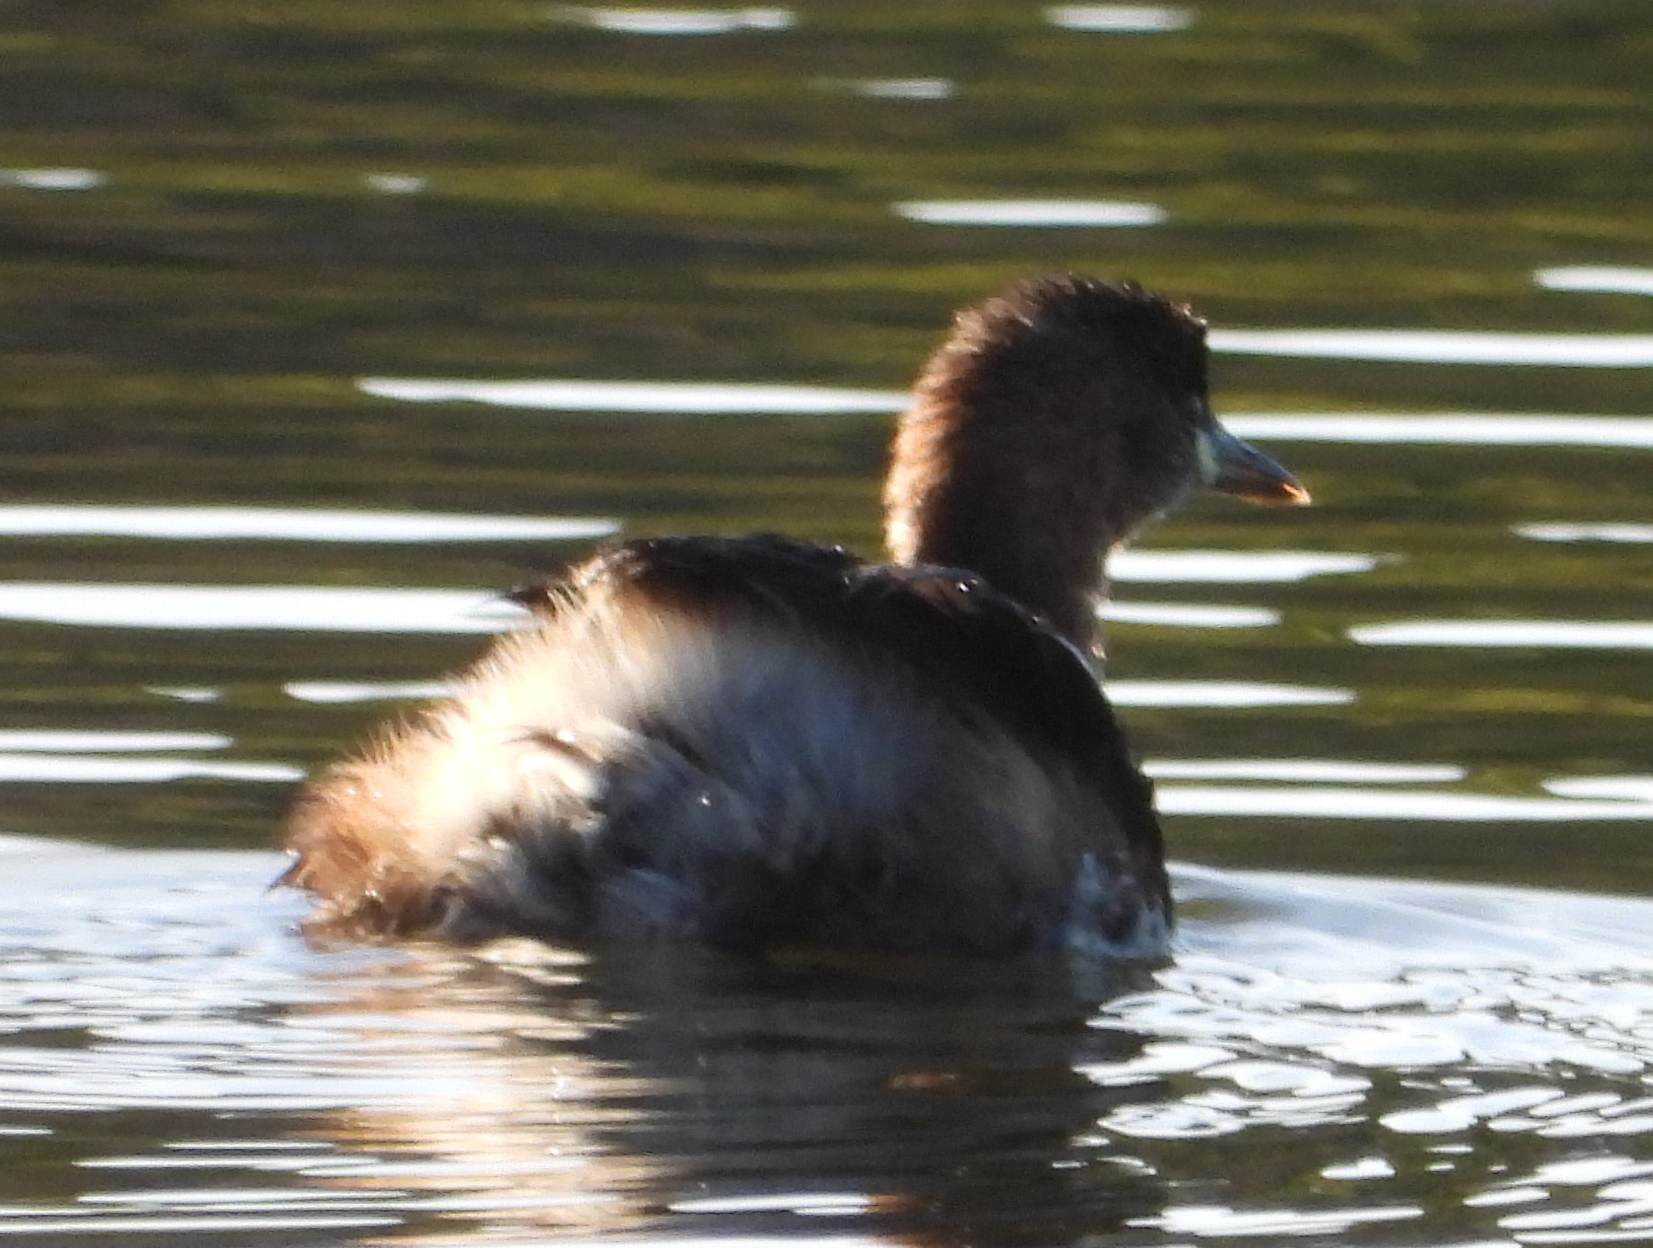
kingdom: Animalia
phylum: Chordata
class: Aves
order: Podicipediformes
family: Podicipedidae
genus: Tachybaptus
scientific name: Tachybaptus ruficollis
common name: Little grebe
